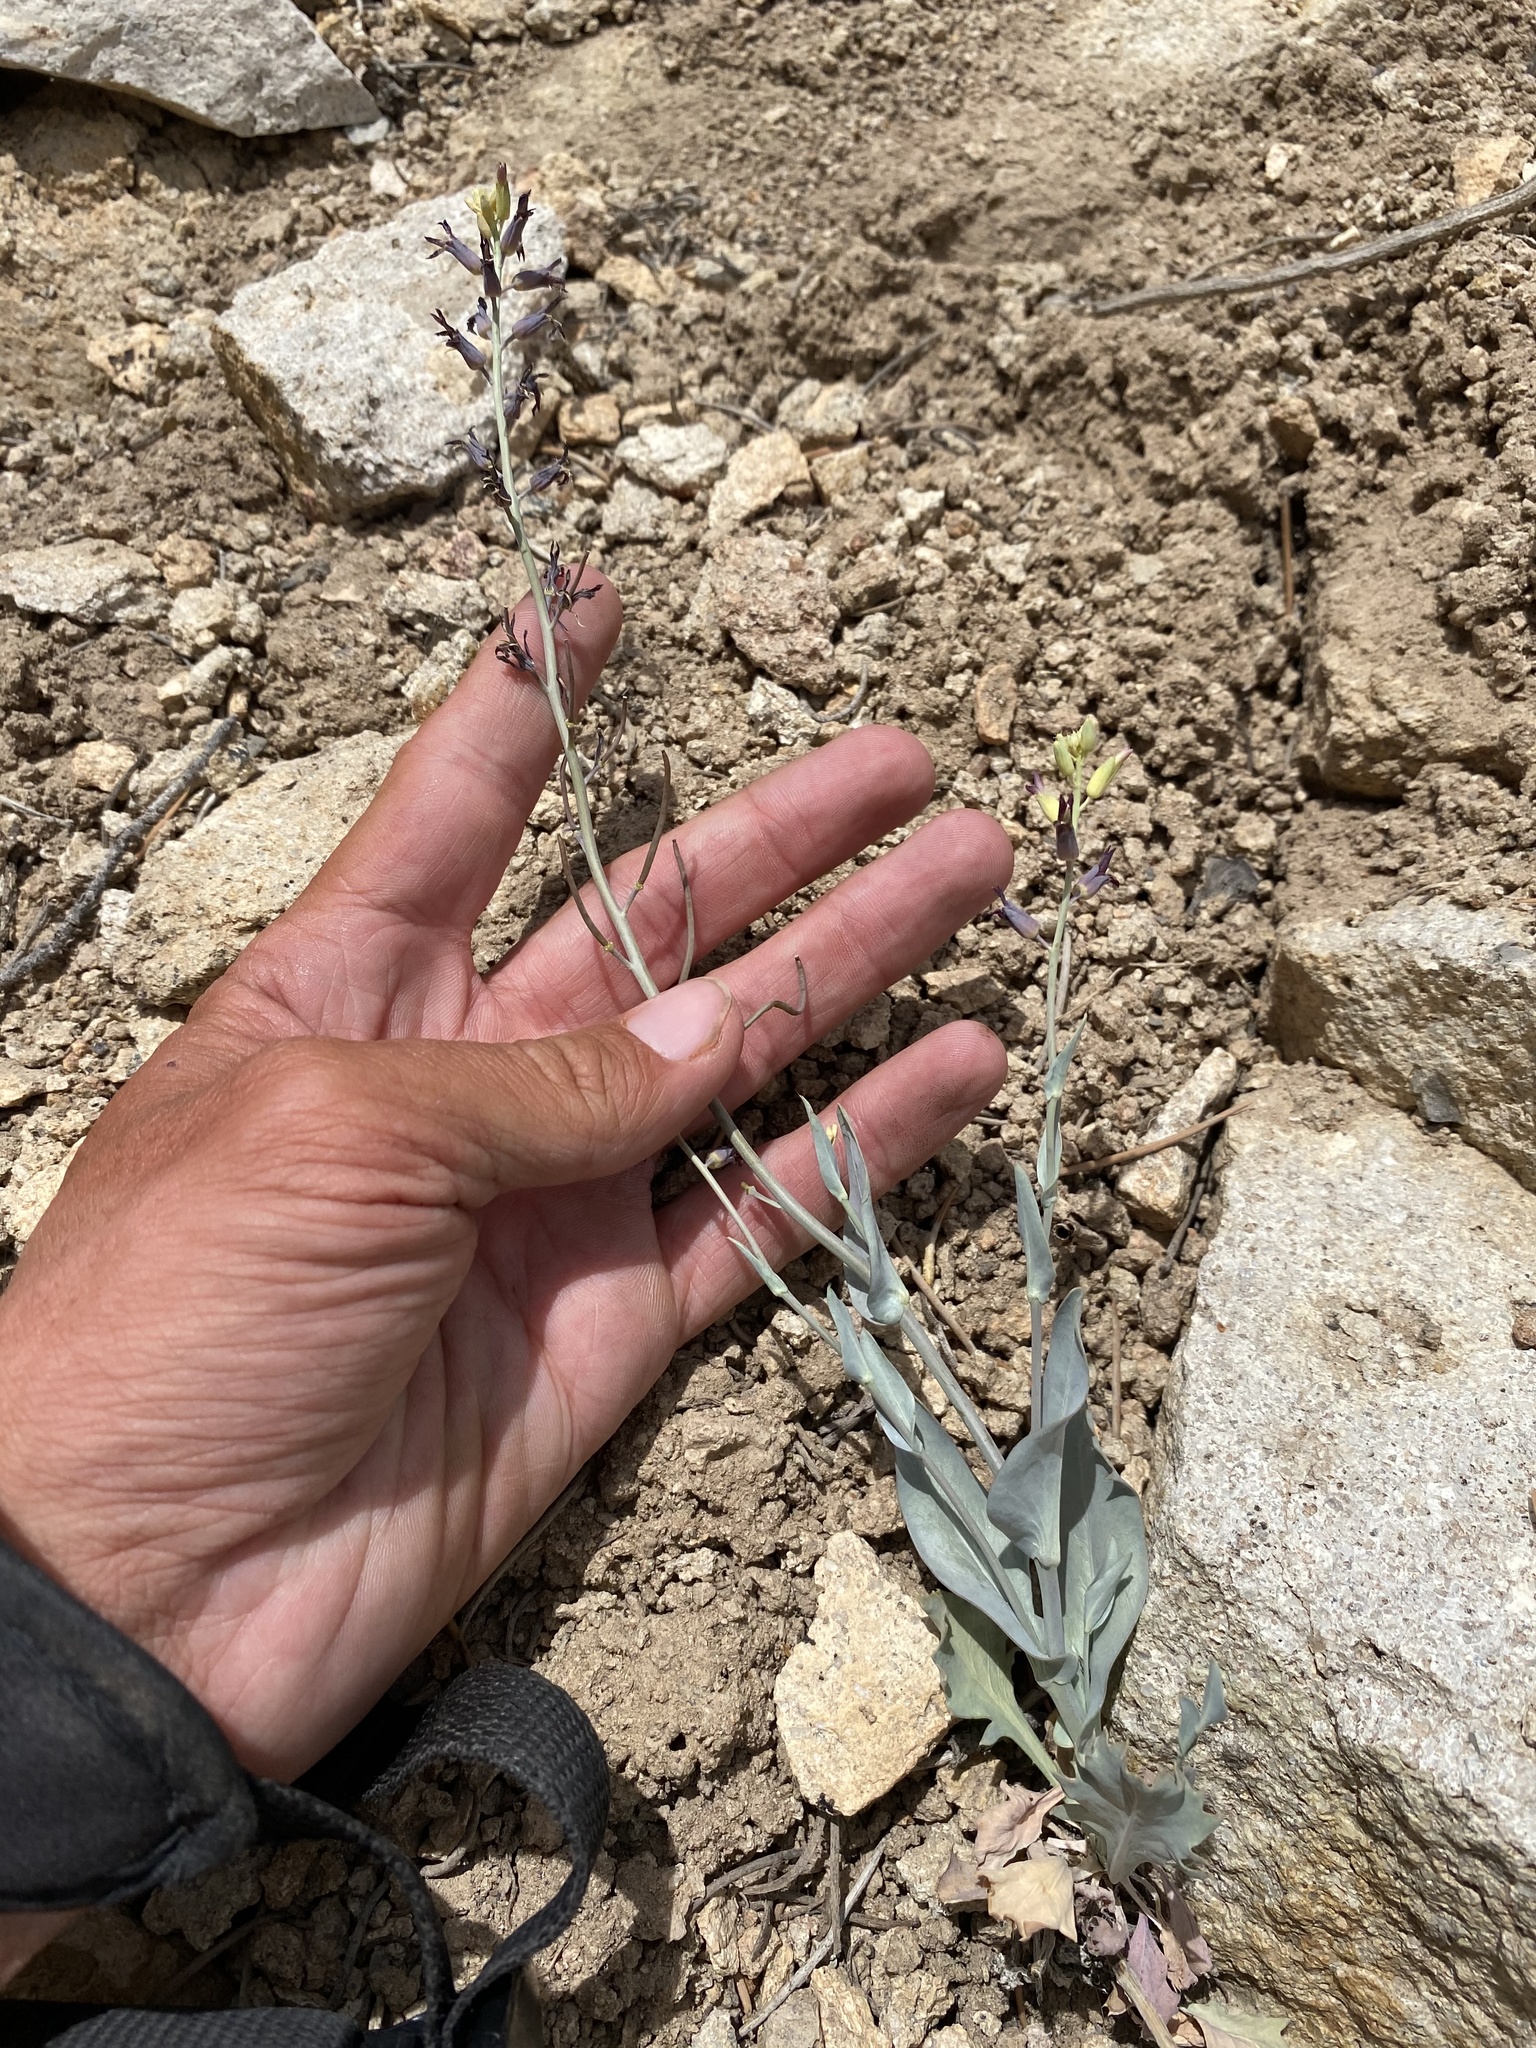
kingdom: Plantae
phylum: Tracheophyta
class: Magnoliopsida
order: Brassicales
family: Brassicaceae
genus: Streptanthus
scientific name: Streptanthus cordatus
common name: Heart-leaf jewel-flower
